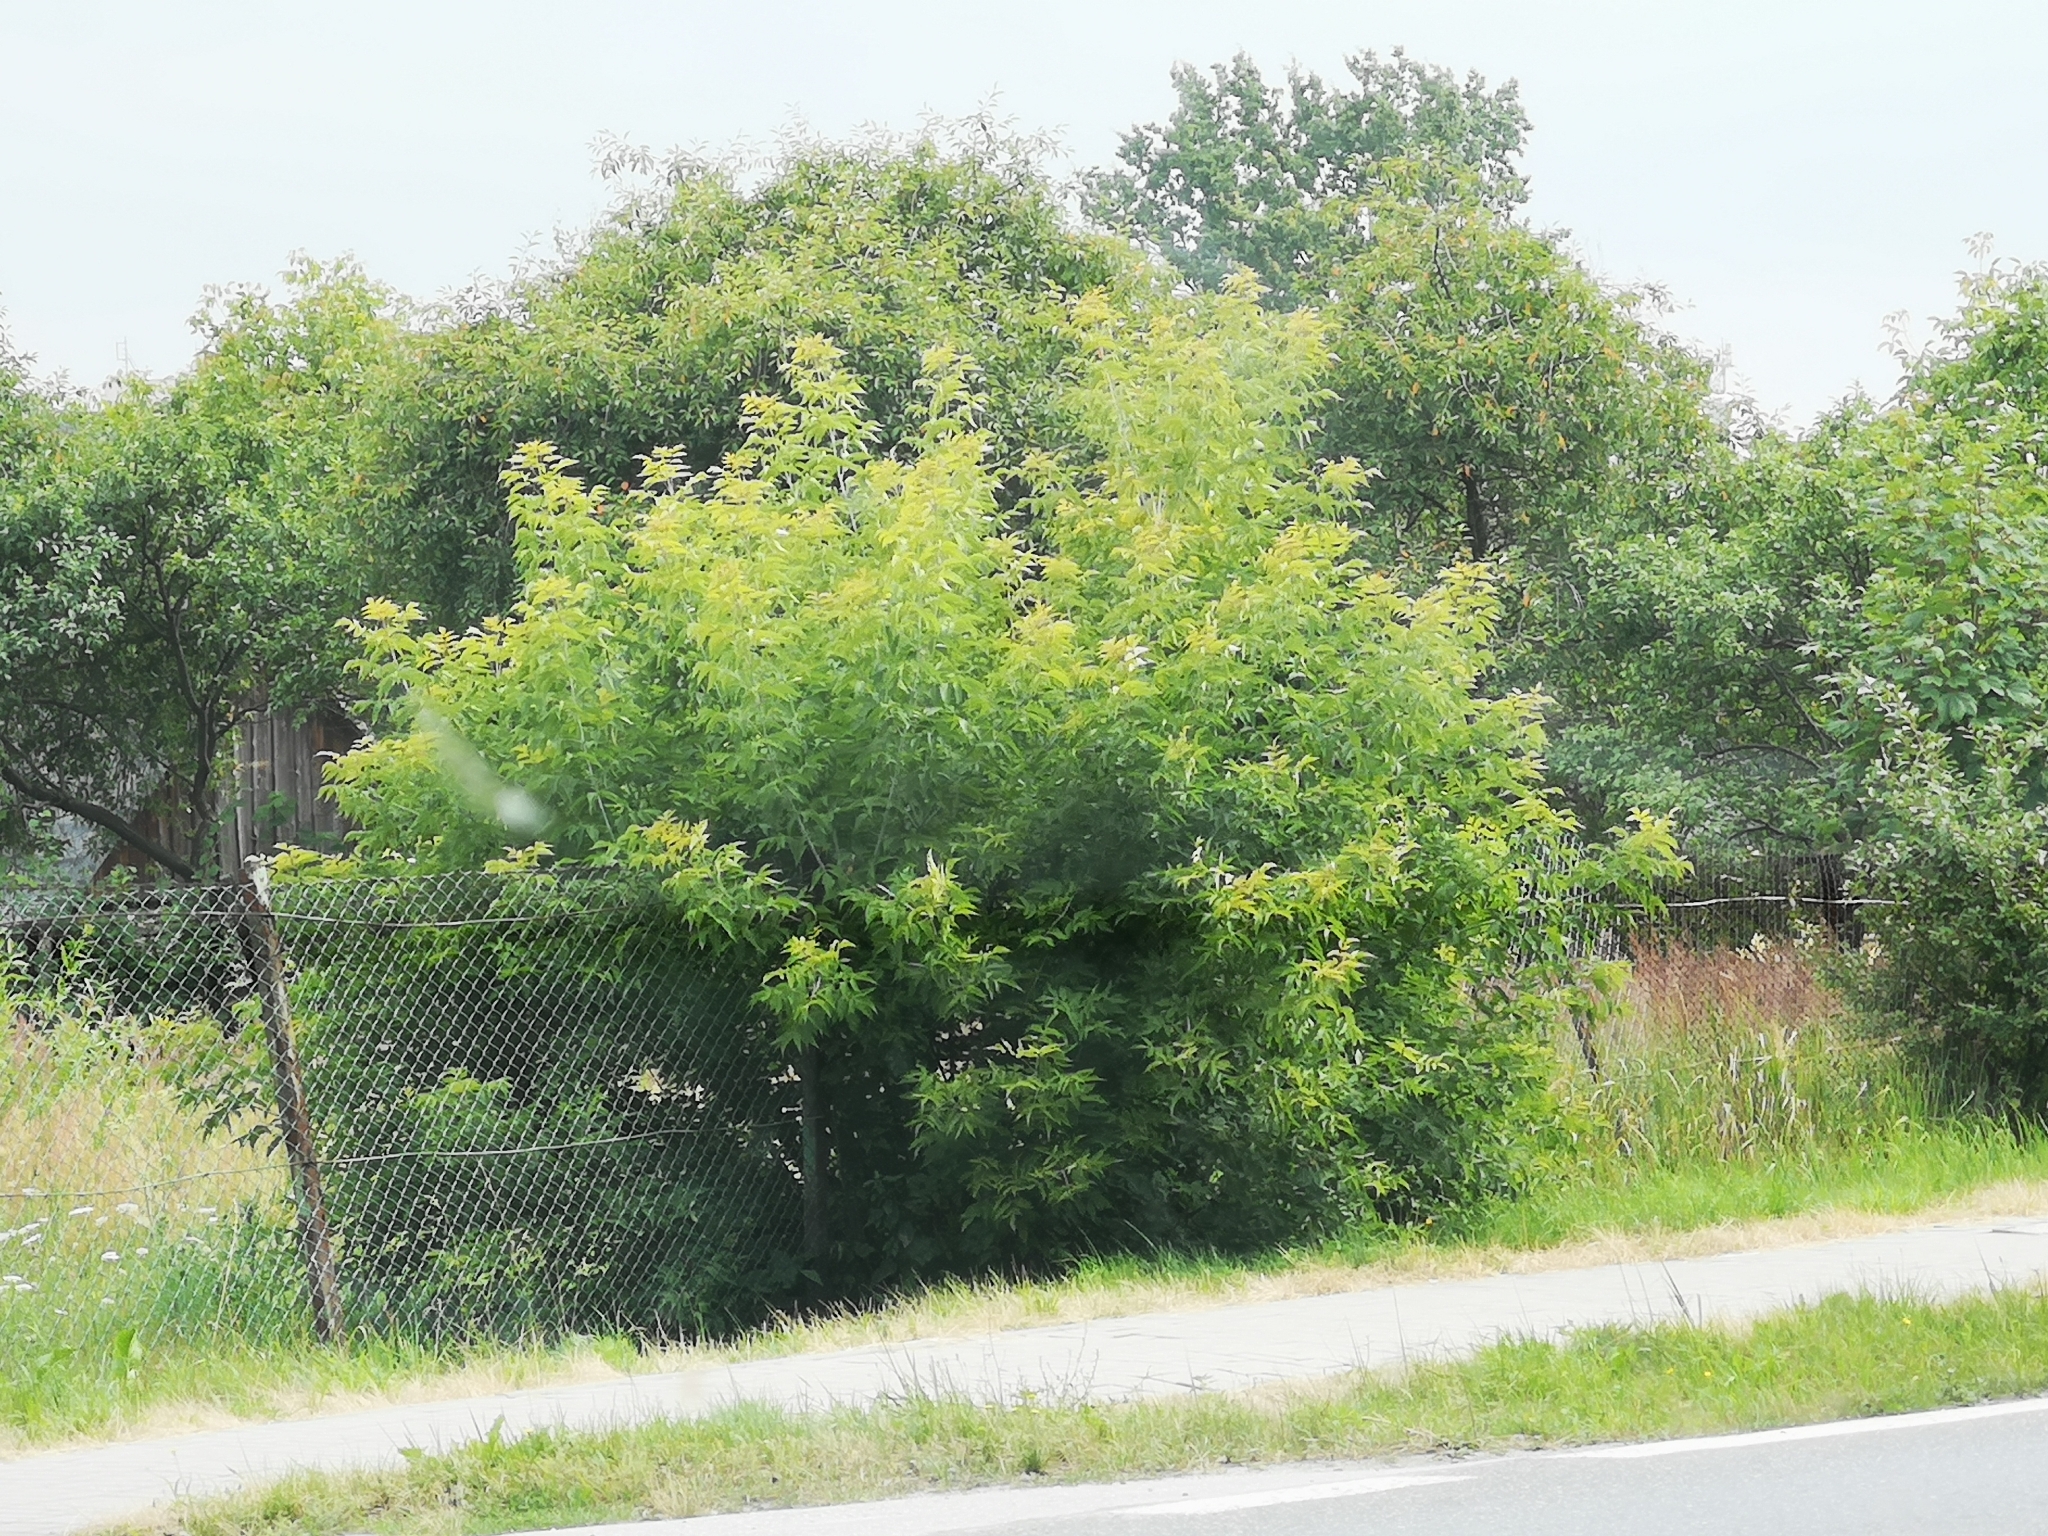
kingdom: Plantae
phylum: Tracheophyta
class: Magnoliopsida
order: Sapindales
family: Sapindaceae
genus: Acer
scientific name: Acer negundo
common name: Ashleaf maple
